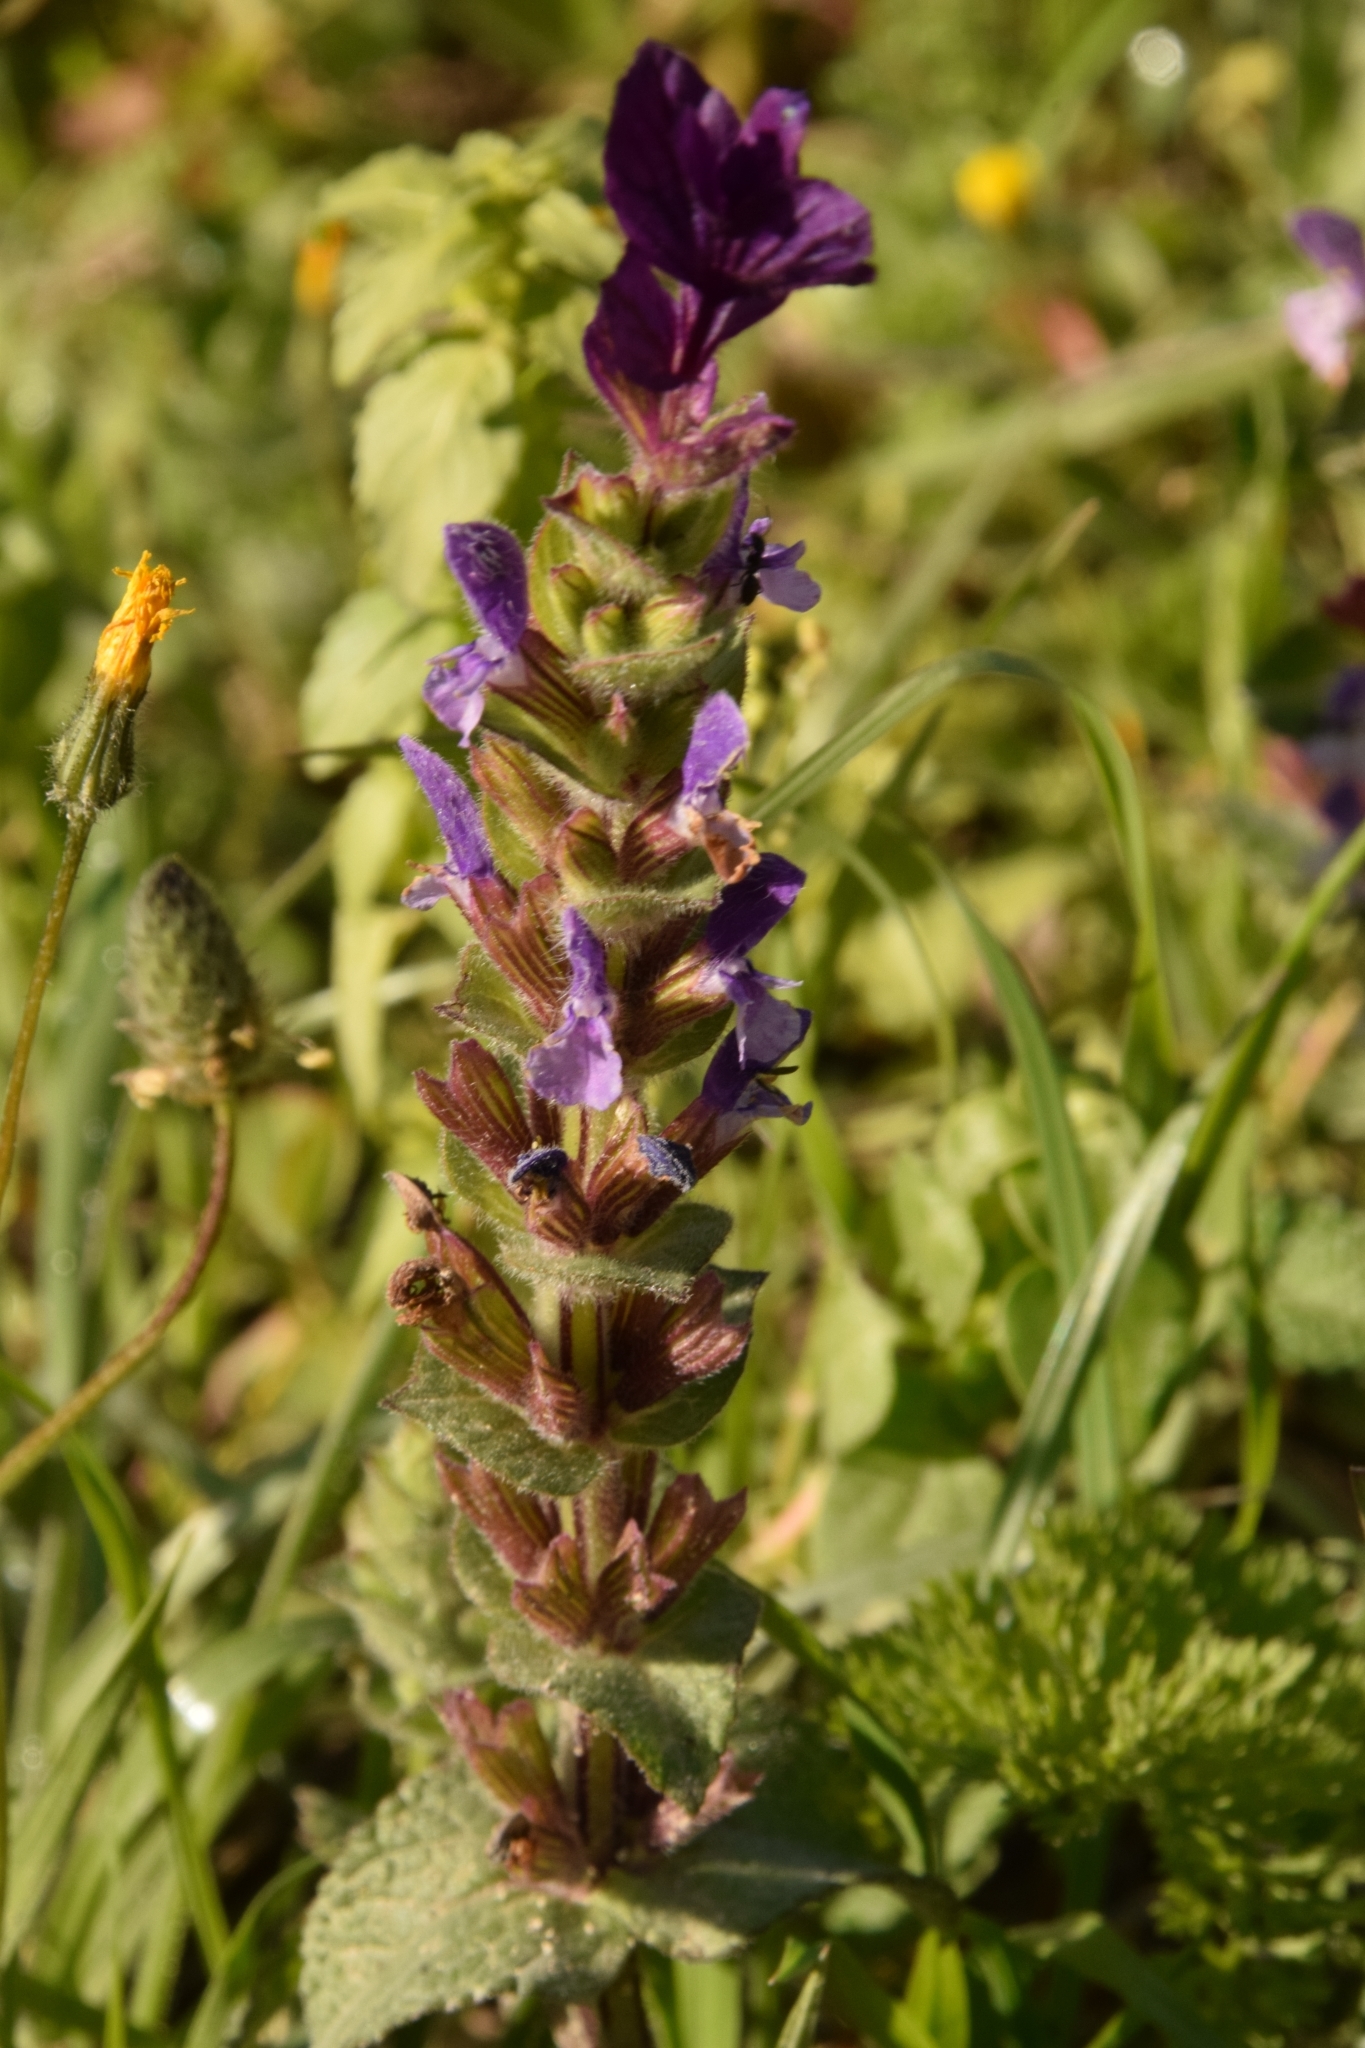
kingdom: Plantae
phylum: Tracheophyta
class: Magnoliopsida
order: Lamiales
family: Lamiaceae
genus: Salvia
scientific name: Salvia viridis
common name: Annual clary
